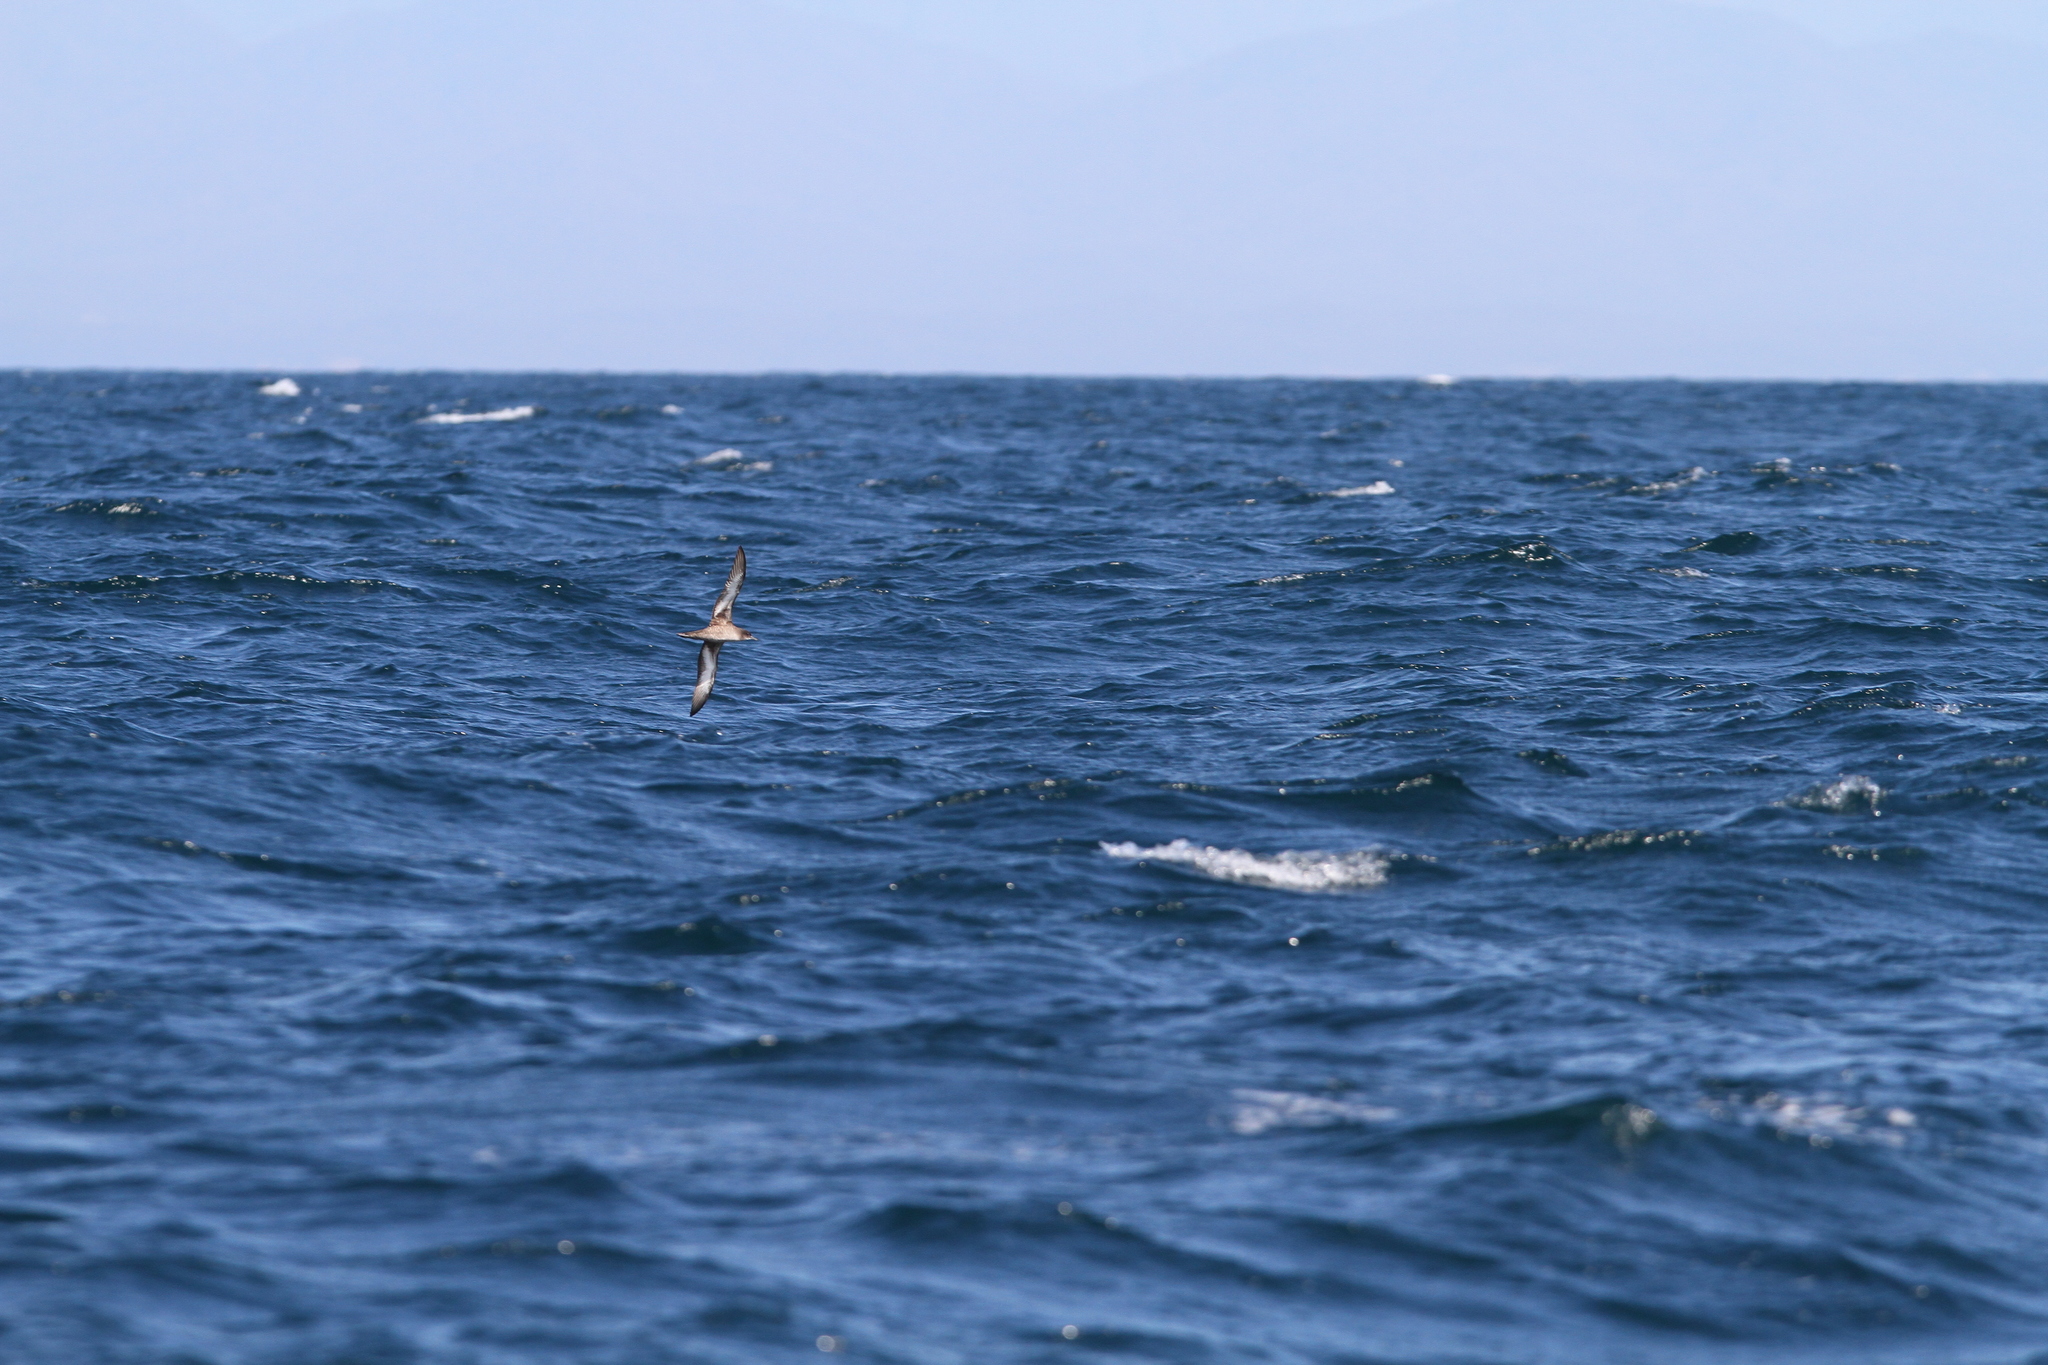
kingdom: Animalia
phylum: Chordata
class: Aves
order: Procellariiformes
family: Procellariidae
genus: Puffinus
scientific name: Puffinus pacificus
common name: Wedge-tailed shearwater
